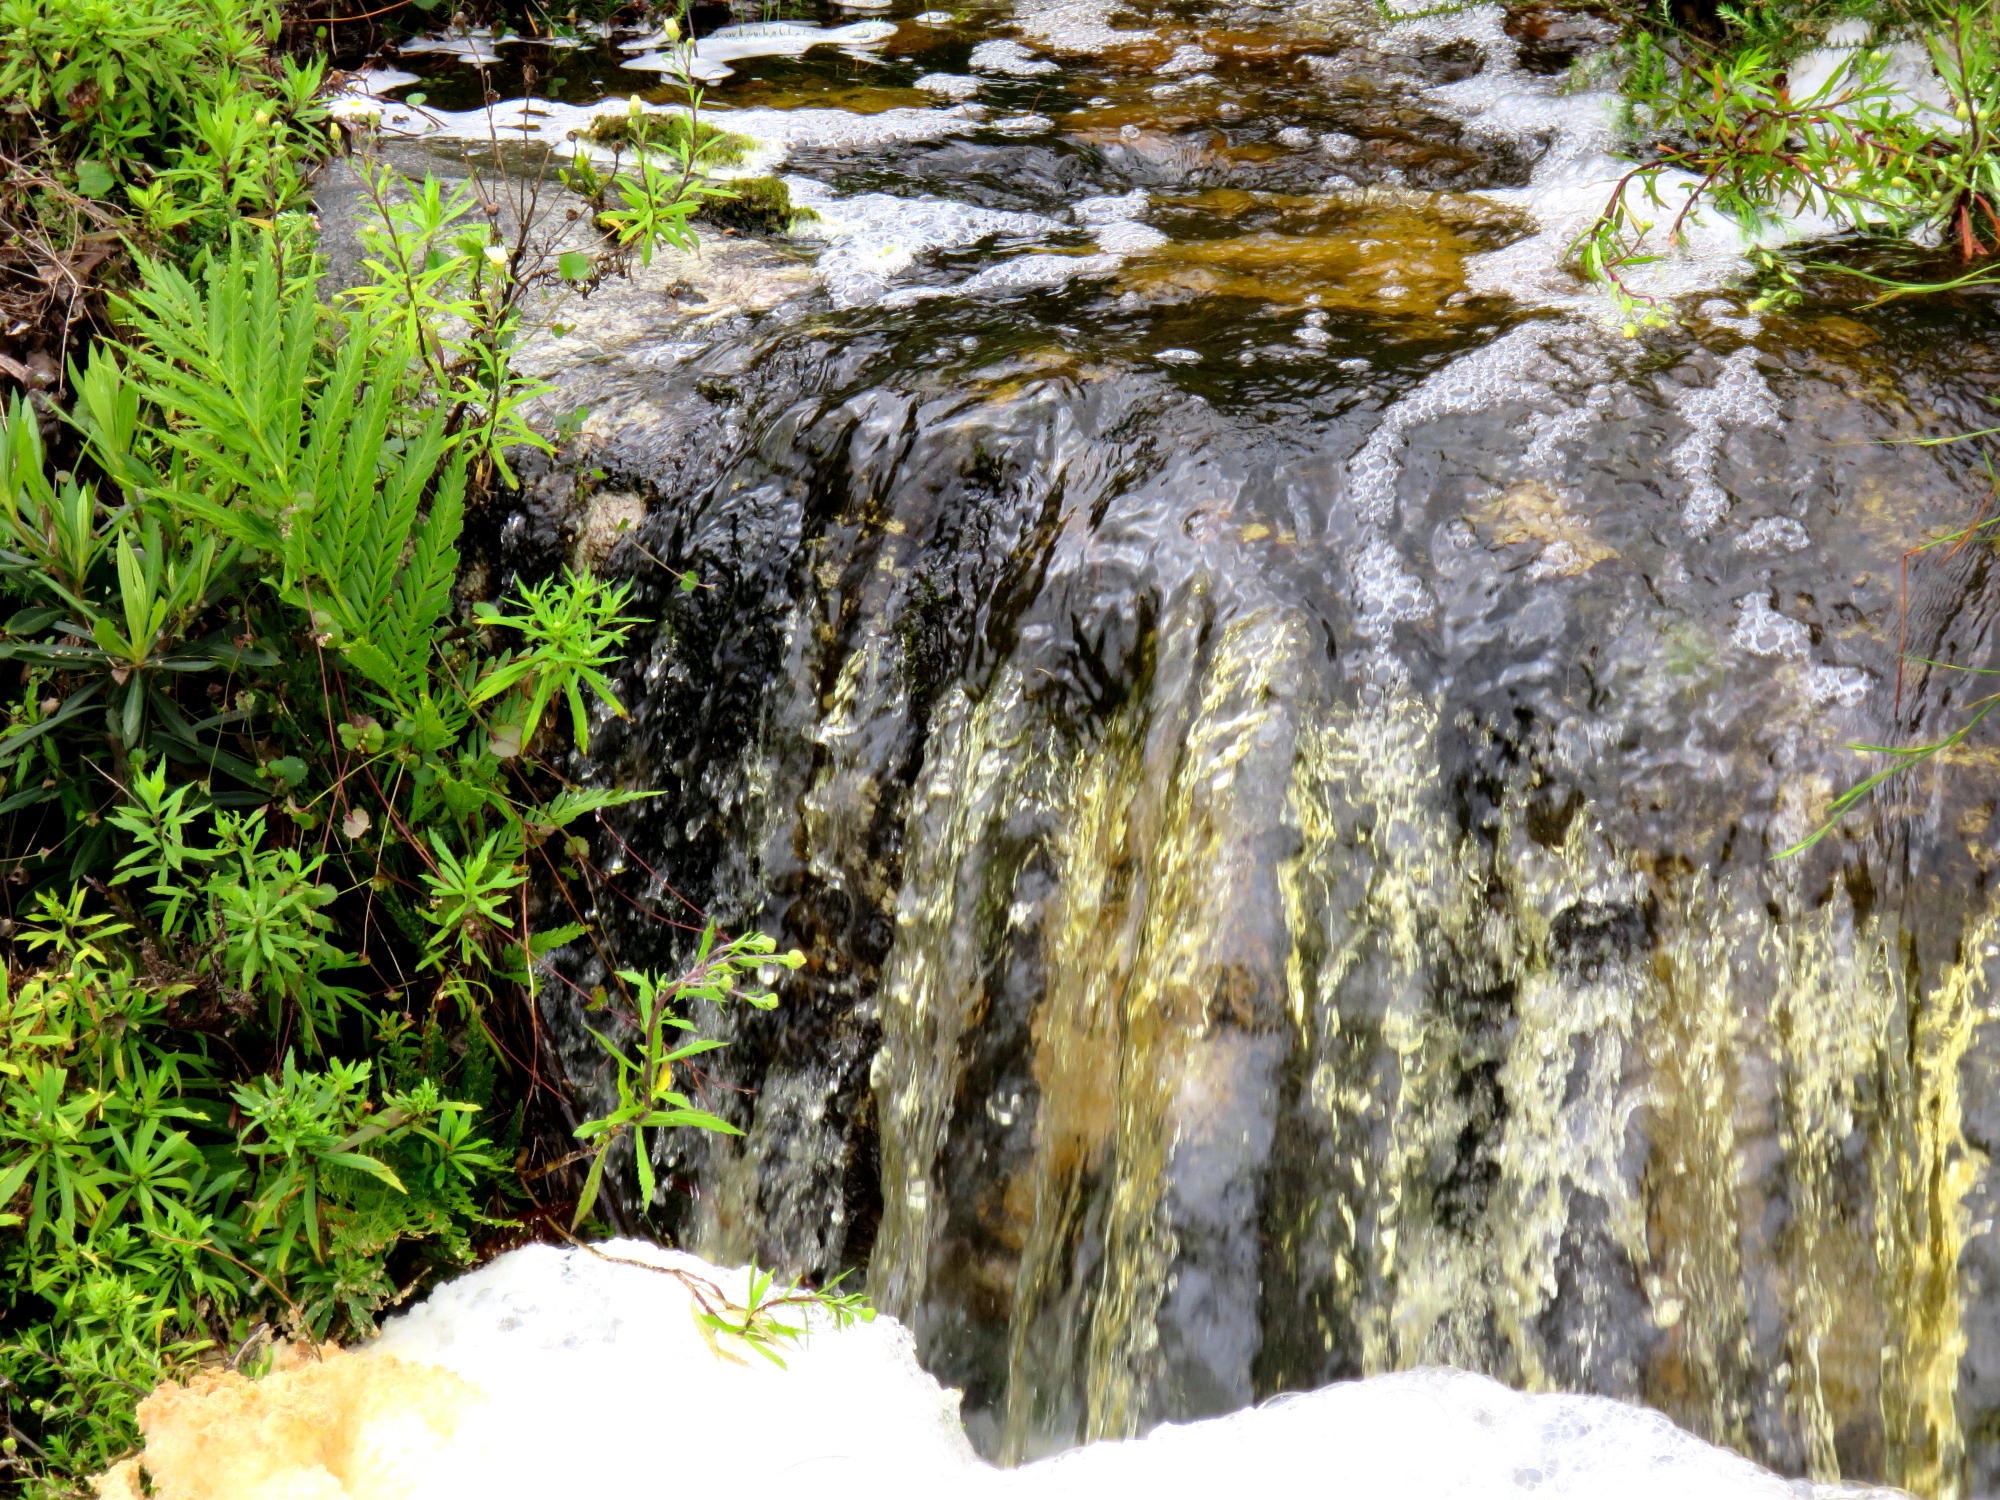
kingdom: Plantae
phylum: Tracheophyta
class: Polypodiopsida
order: Osmundales
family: Osmundaceae
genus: Todea
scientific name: Todea barbara
